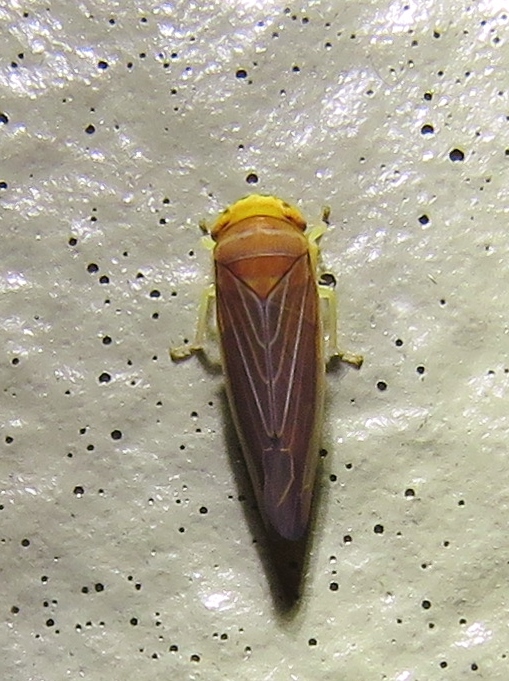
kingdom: Animalia
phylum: Arthropoda
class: Insecta
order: Hemiptera
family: Cicadellidae
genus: Idiodonus
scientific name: Idiodonus kennicotti
